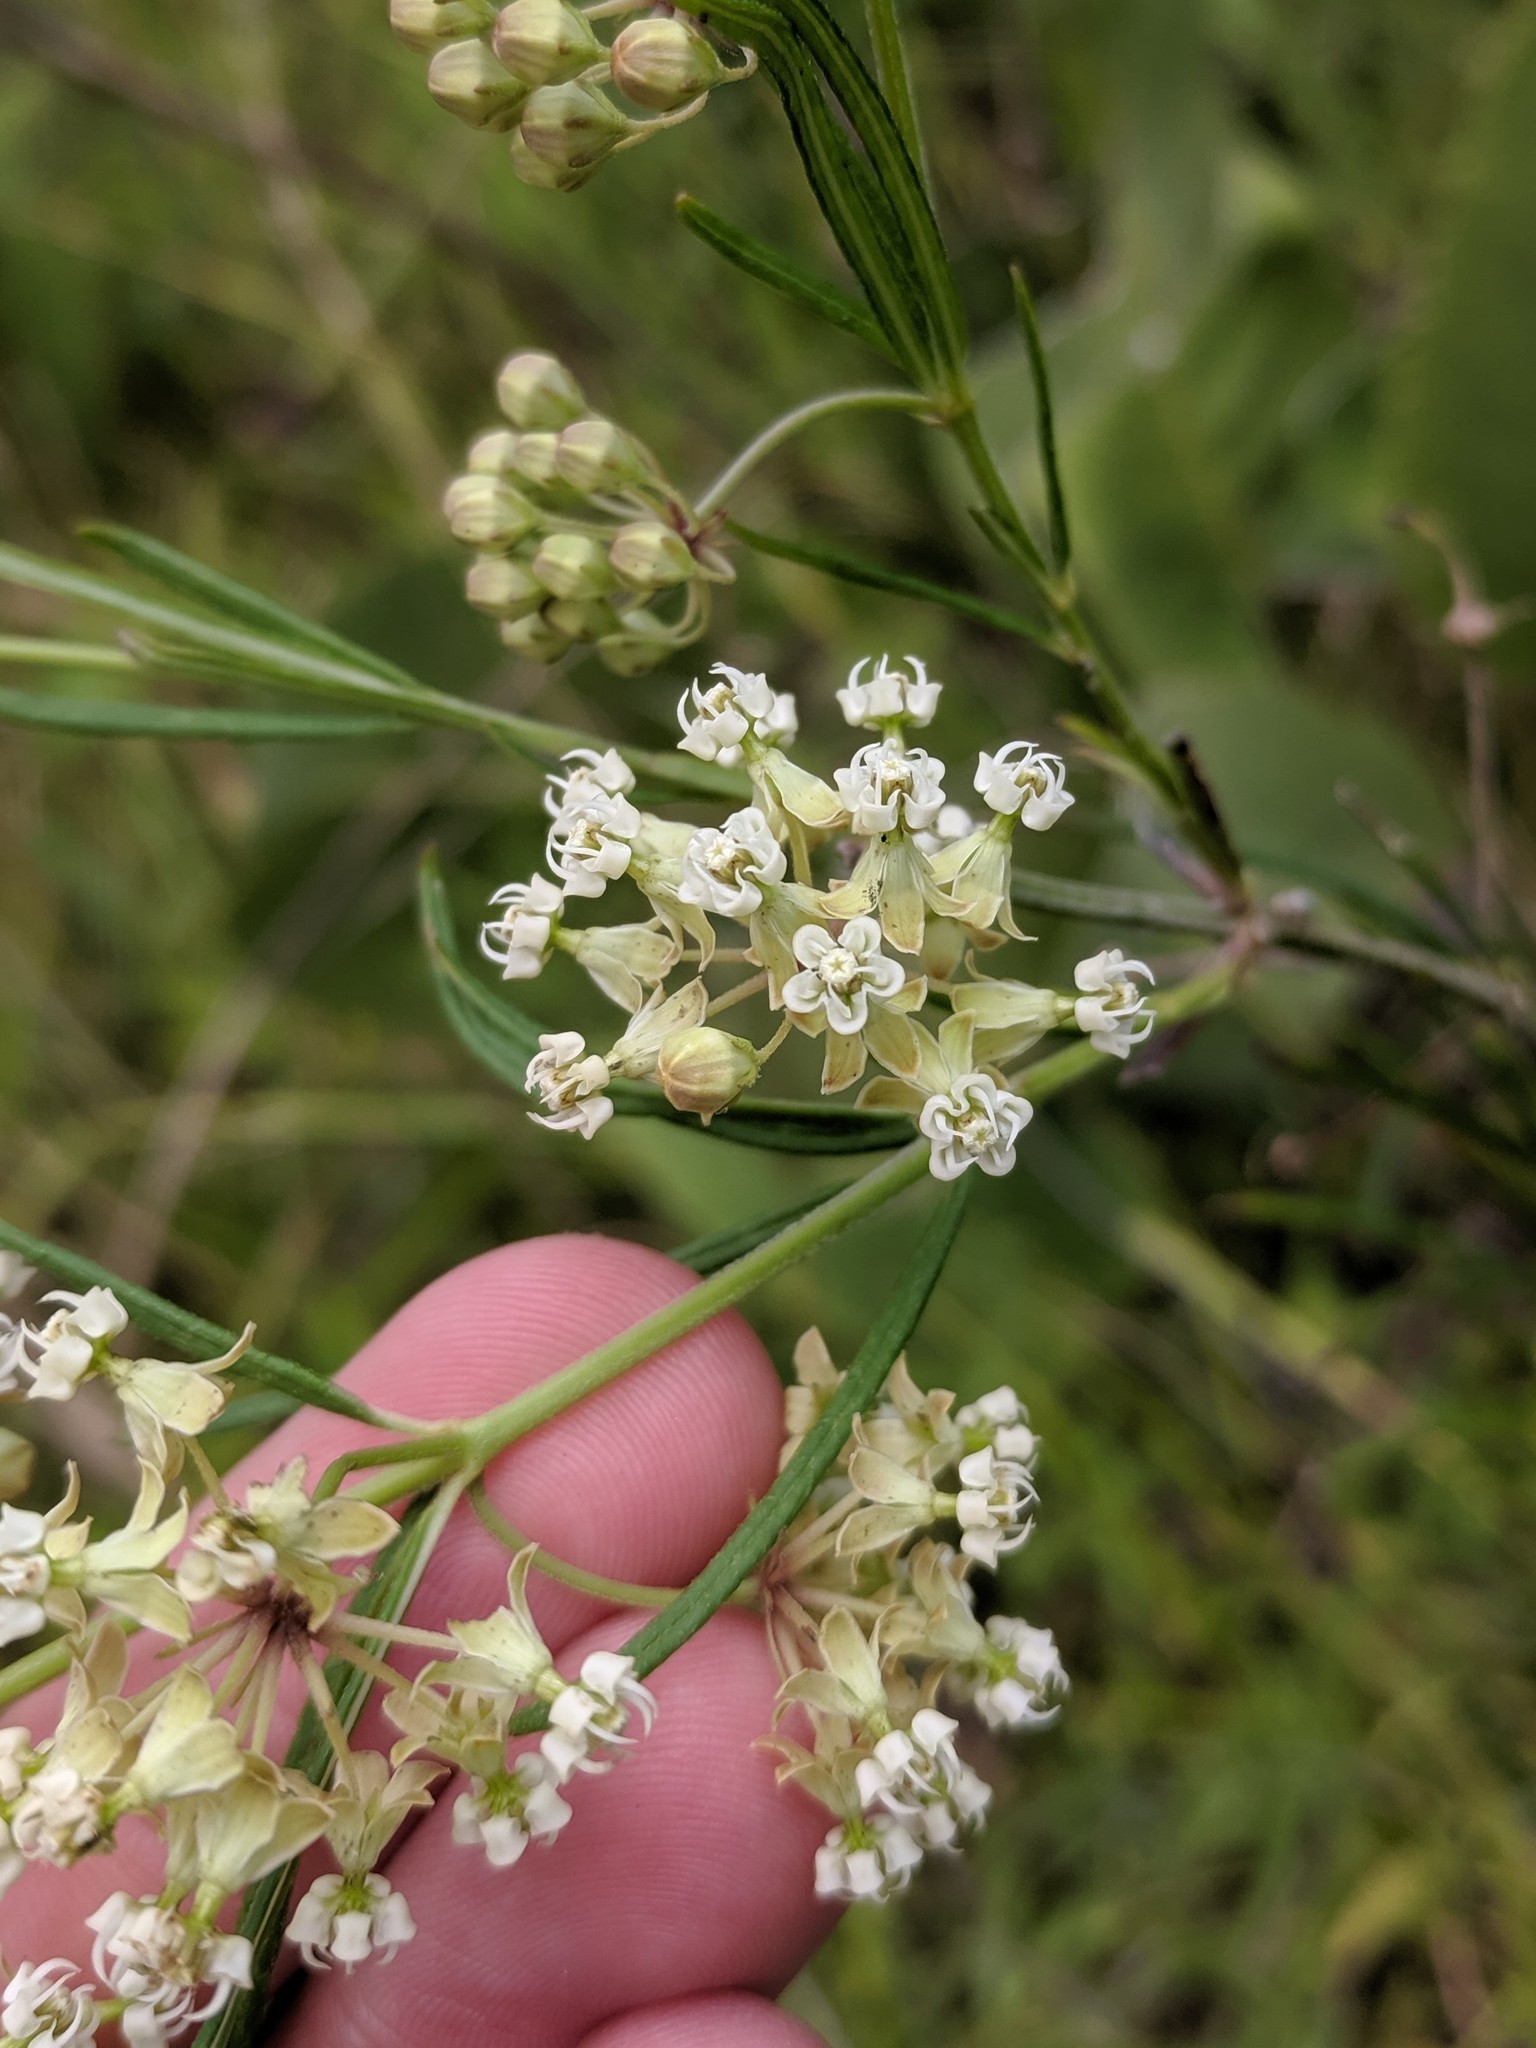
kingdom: Plantae
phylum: Tracheophyta
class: Magnoliopsida
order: Gentianales
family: Apocynaceae
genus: Asclepias
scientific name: Asclepias verticillata
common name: Eastern whorled milkweed
